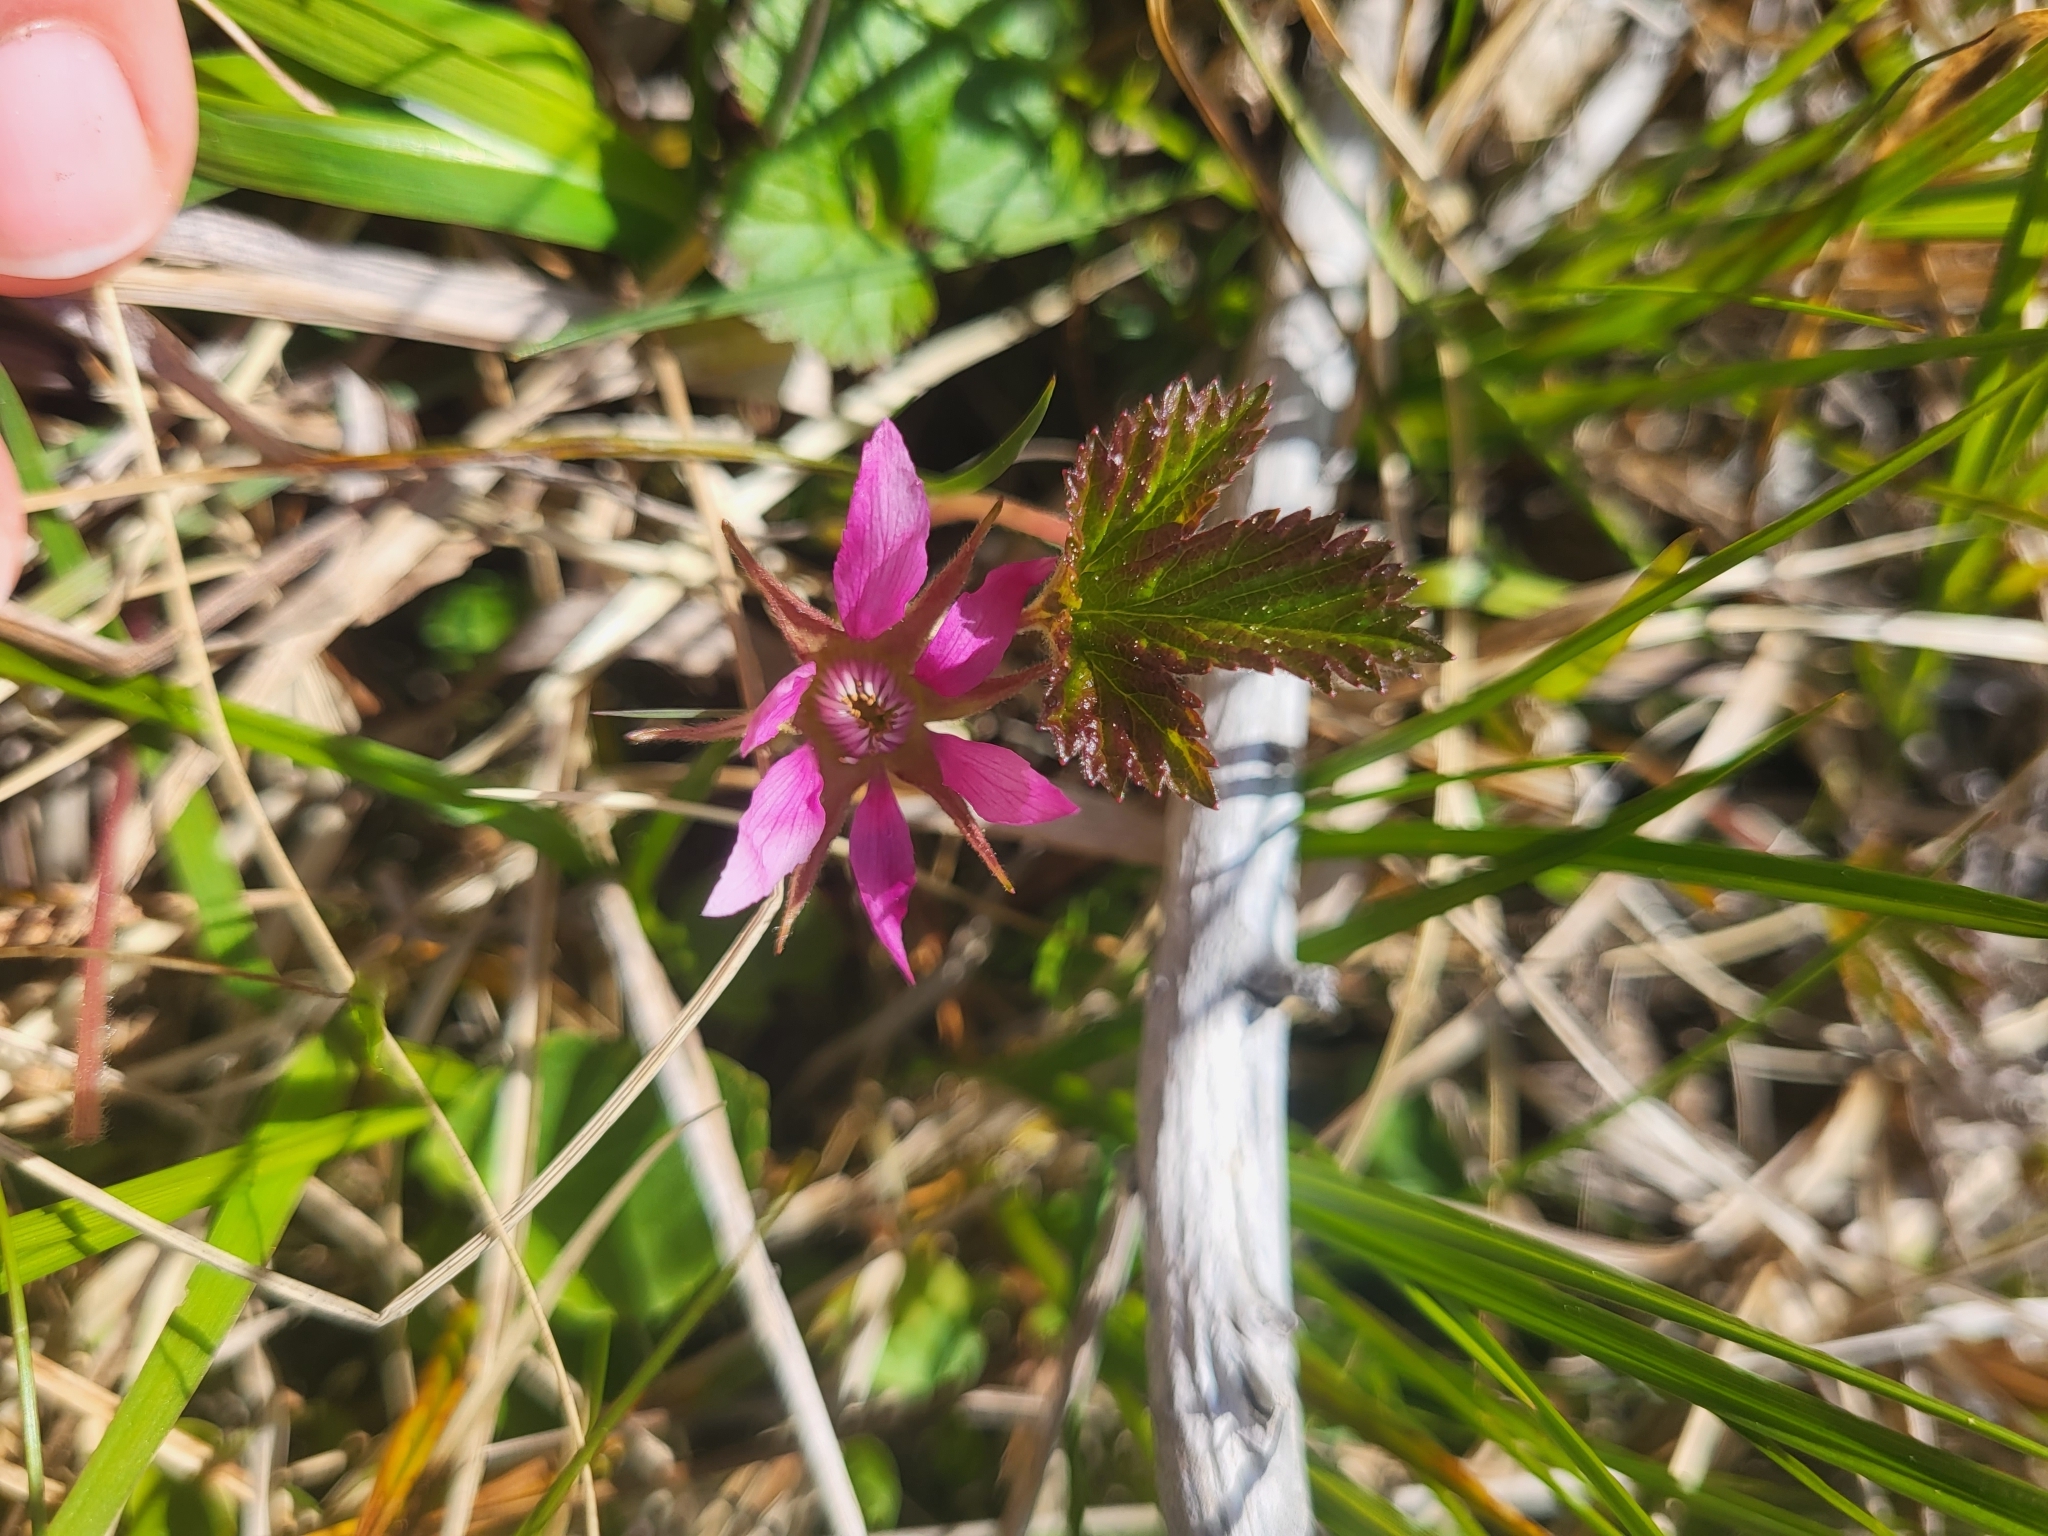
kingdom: Plantae
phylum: Tracheophyta
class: Magnoliopsida
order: Rosales
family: Rosaceae
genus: Rubus
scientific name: Rubus arcticus
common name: Arctic bramble
